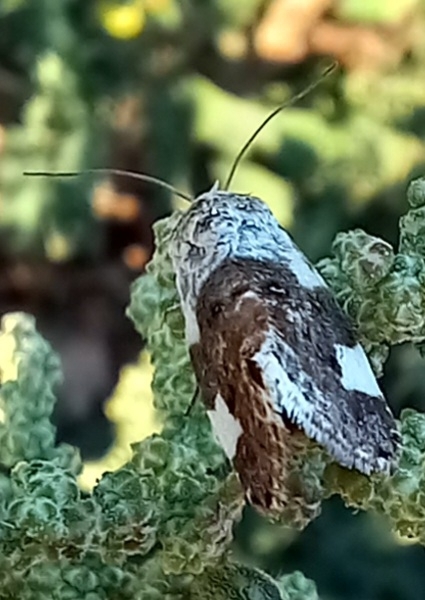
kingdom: Animalia
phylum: Arthropoda
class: Insecta
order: Lepidoptera
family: Noctuidae
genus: Acontia
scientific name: Acontia lucida
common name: Pale shoulder
